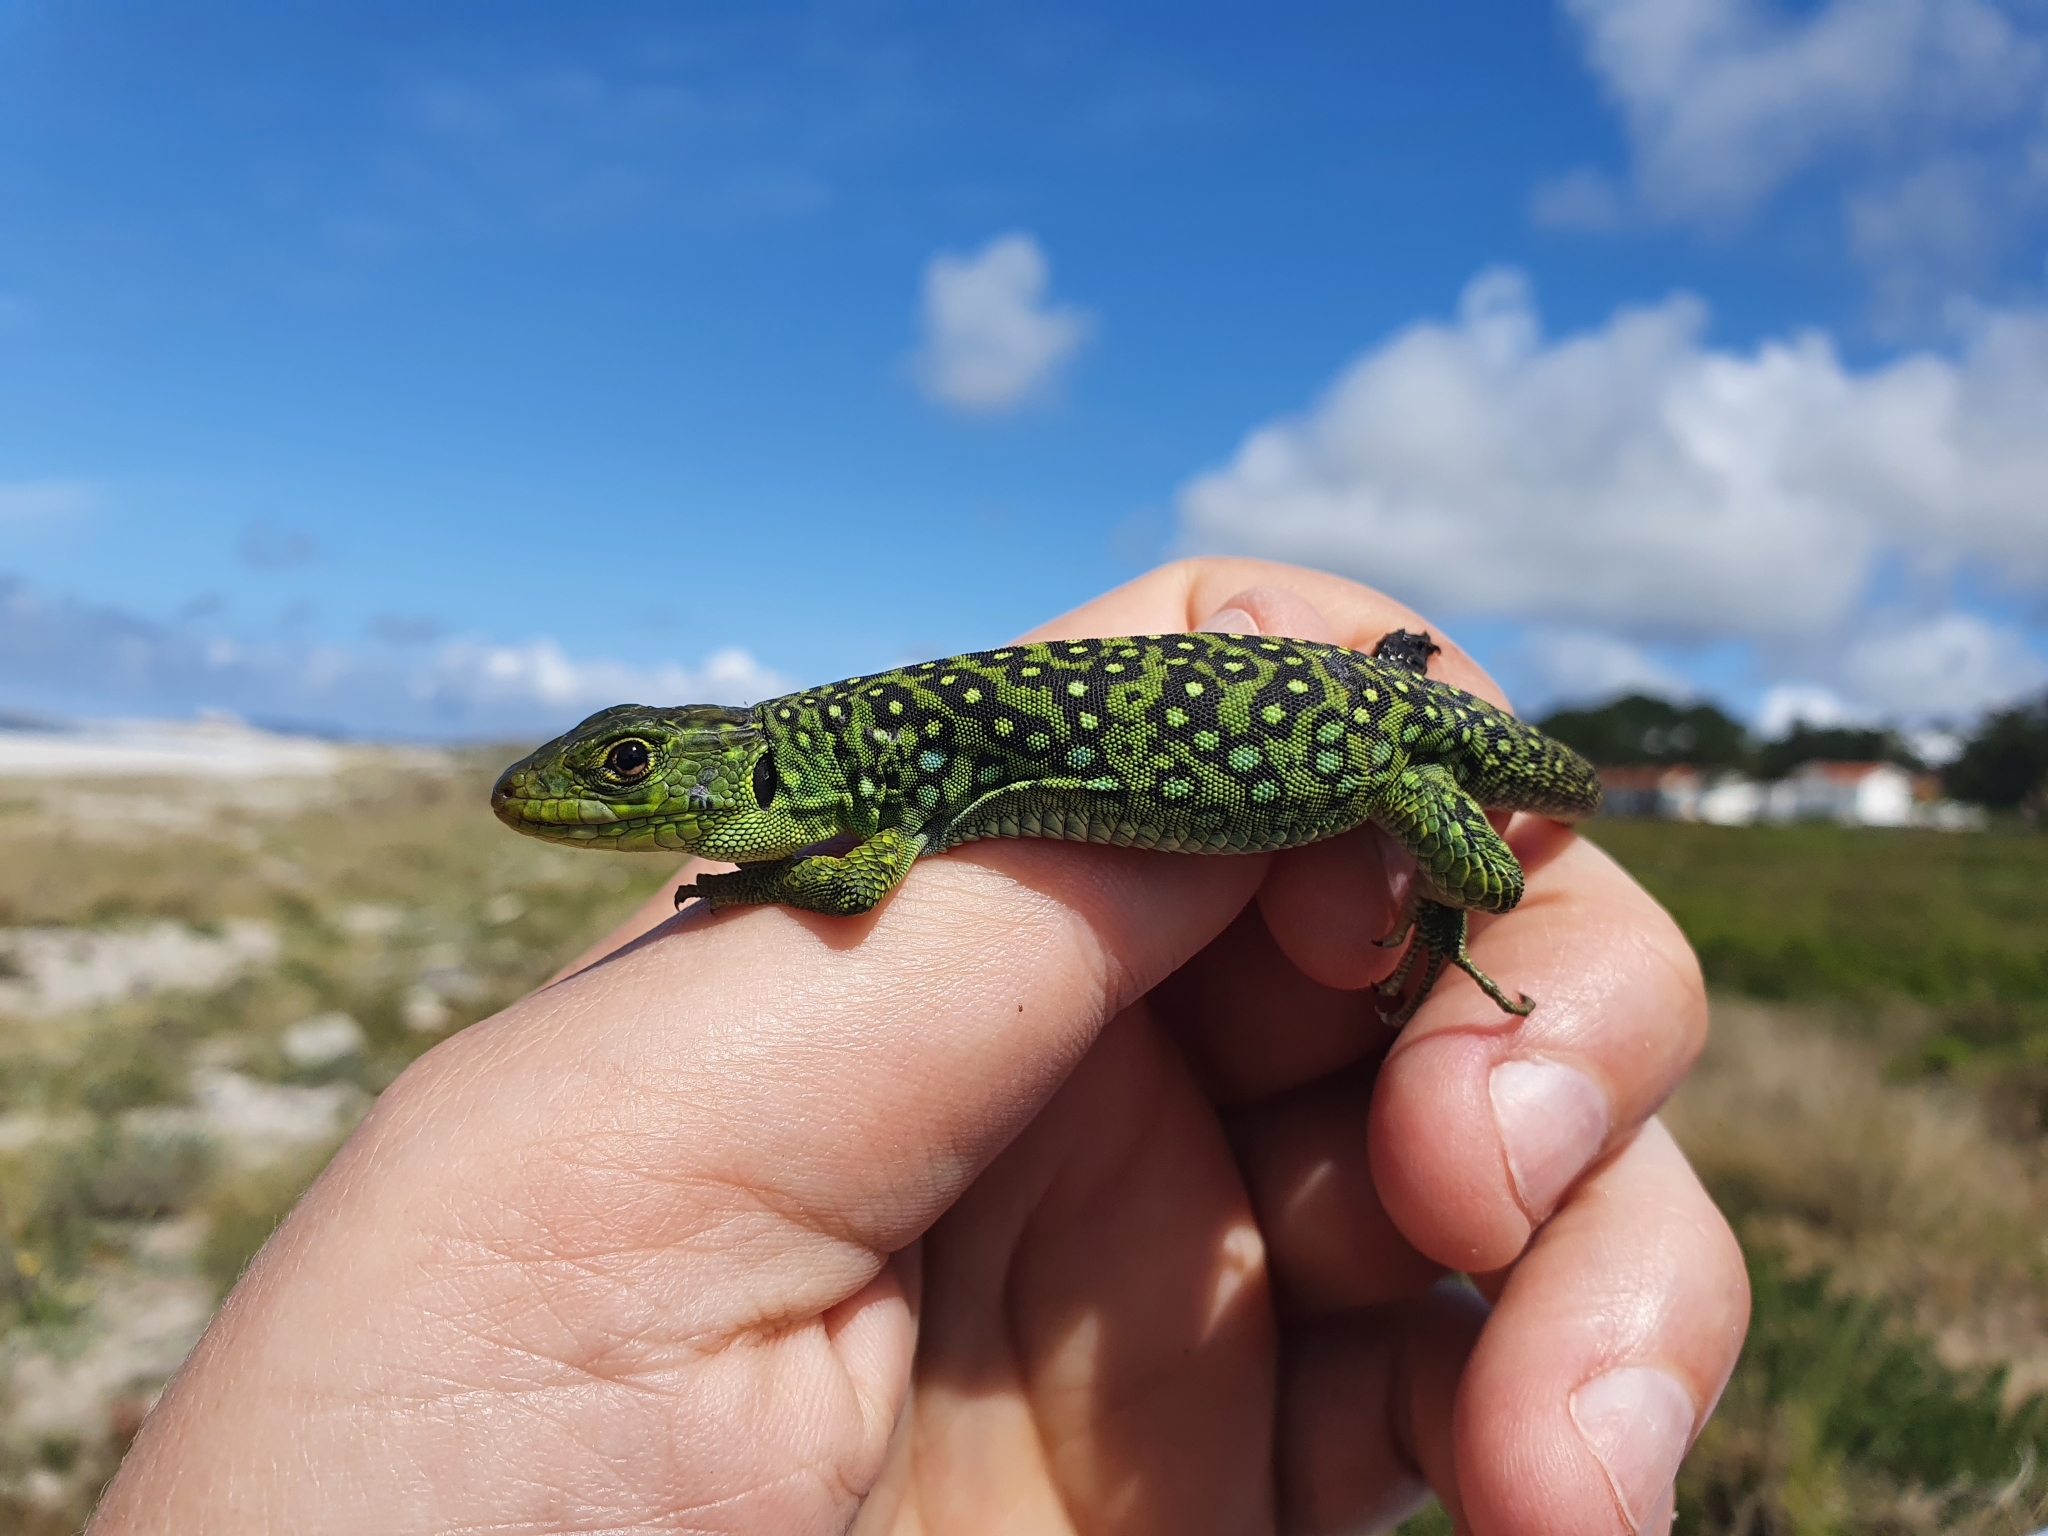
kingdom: Animalia
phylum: Chordata
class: Squamata
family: Lacertidae
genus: Timon
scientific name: Timon lepidus
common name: Ocellated lizard
